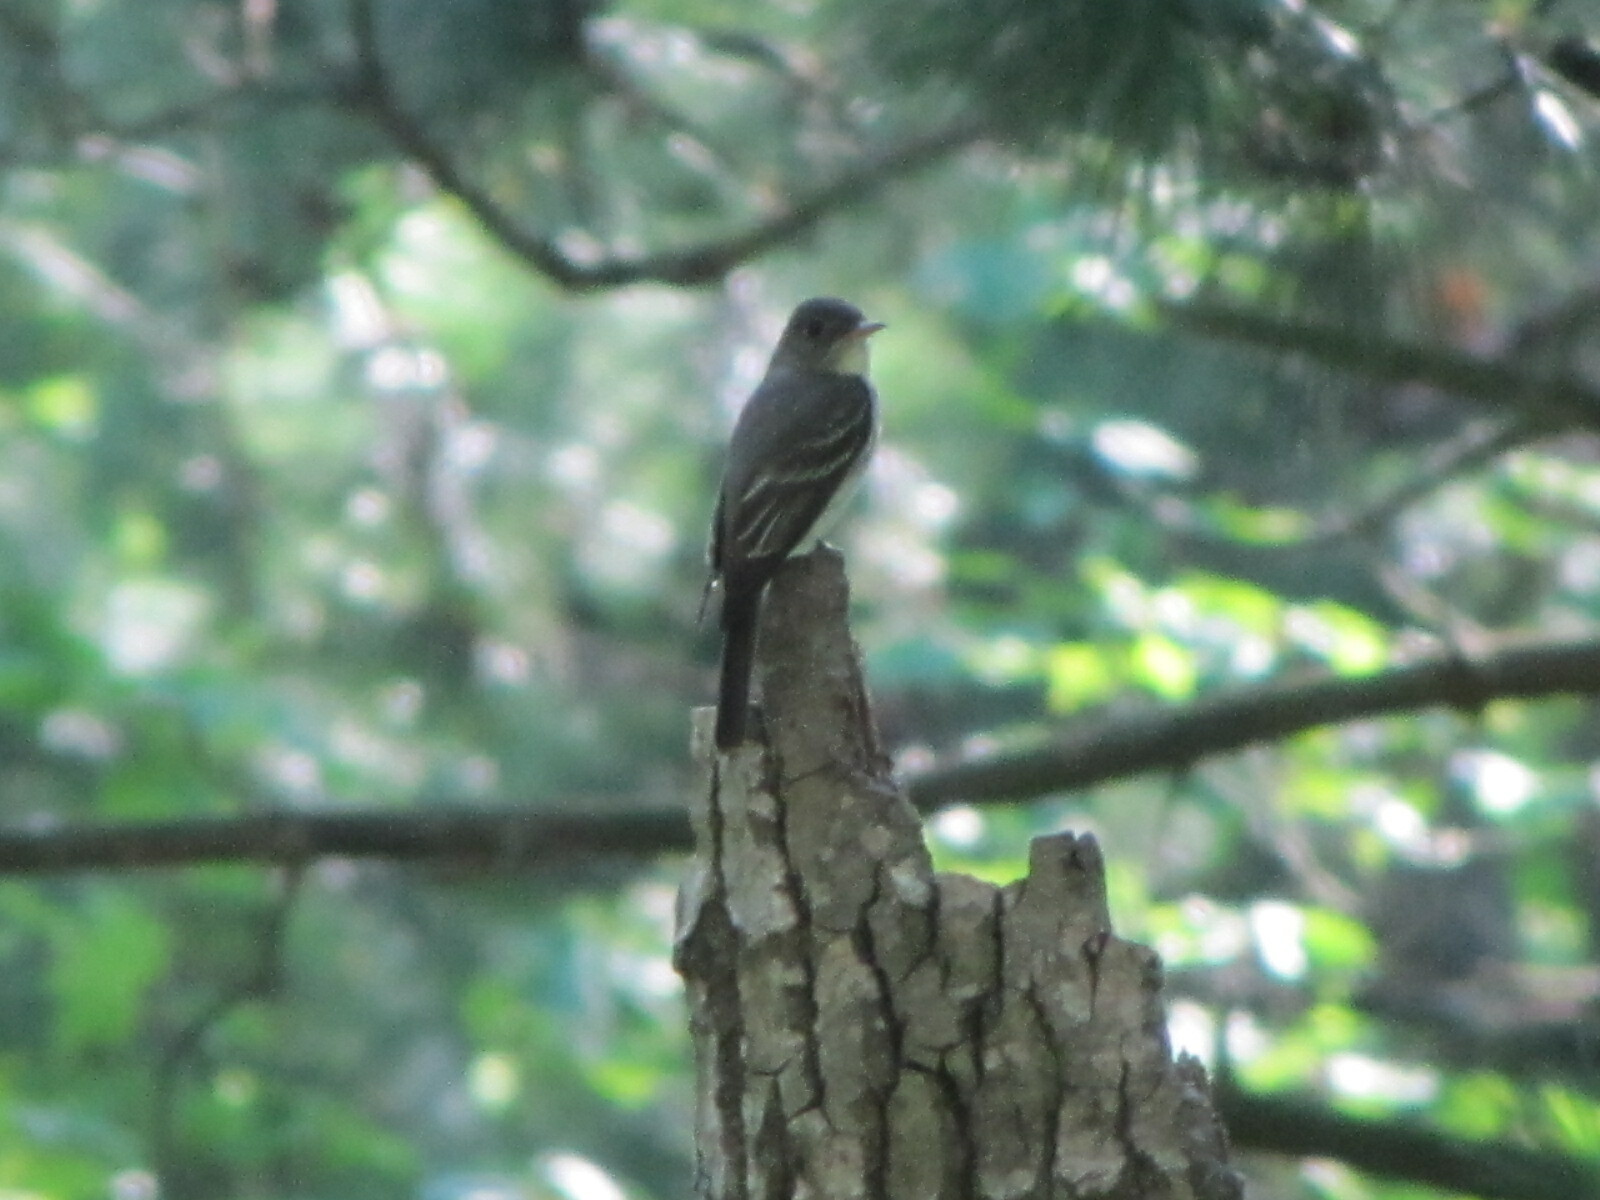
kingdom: Animalia
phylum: Chordata
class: Aves
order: Passeriformes
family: Tyrannidae
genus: Contopus
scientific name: Contopus virens
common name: Eastern wood-pewee
